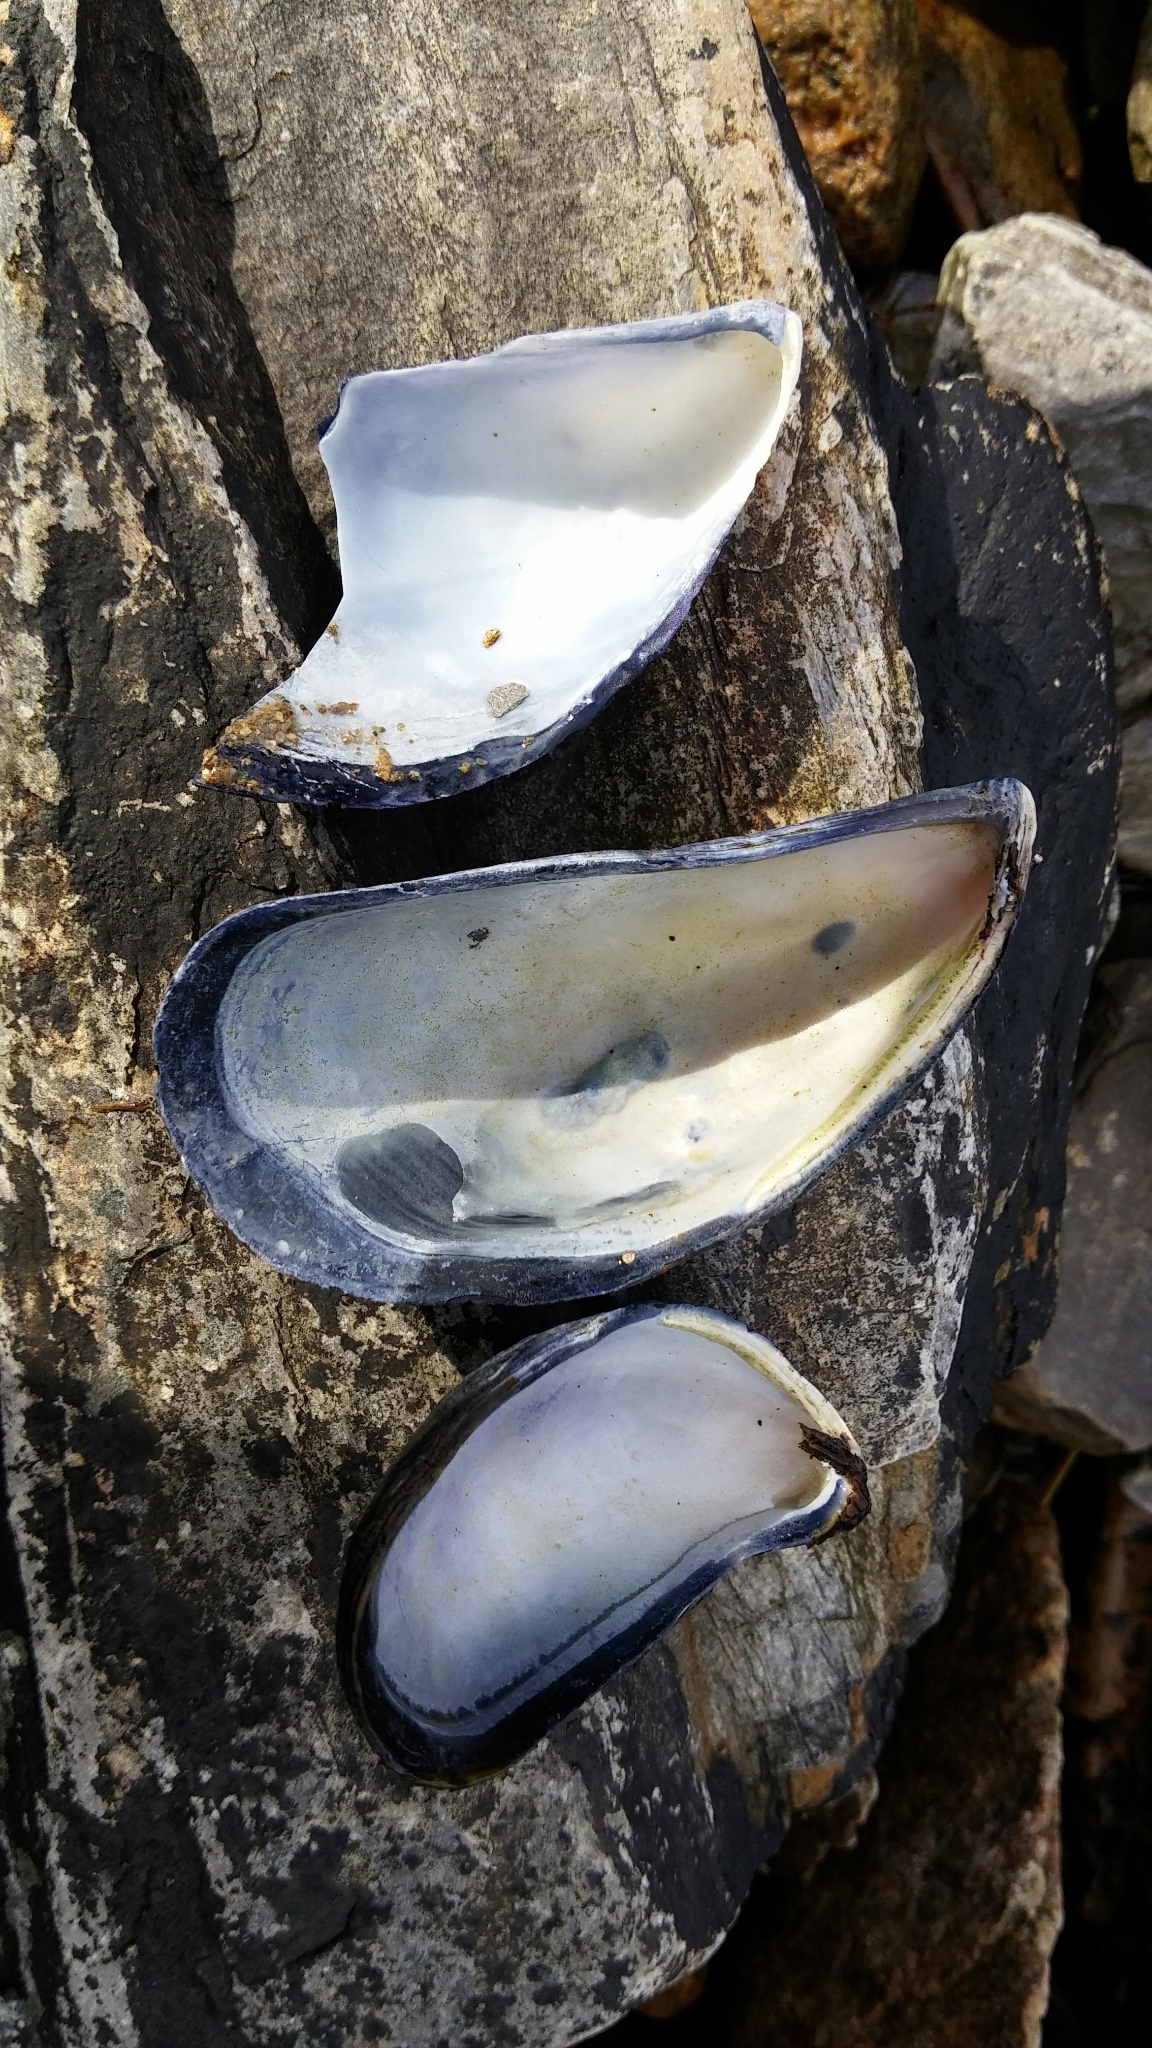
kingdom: Animalia
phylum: Mollusca
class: Bivalvia
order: Mytilida
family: Mytilidae
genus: Mytilus
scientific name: Mytilus edulis
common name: Blue mussel
